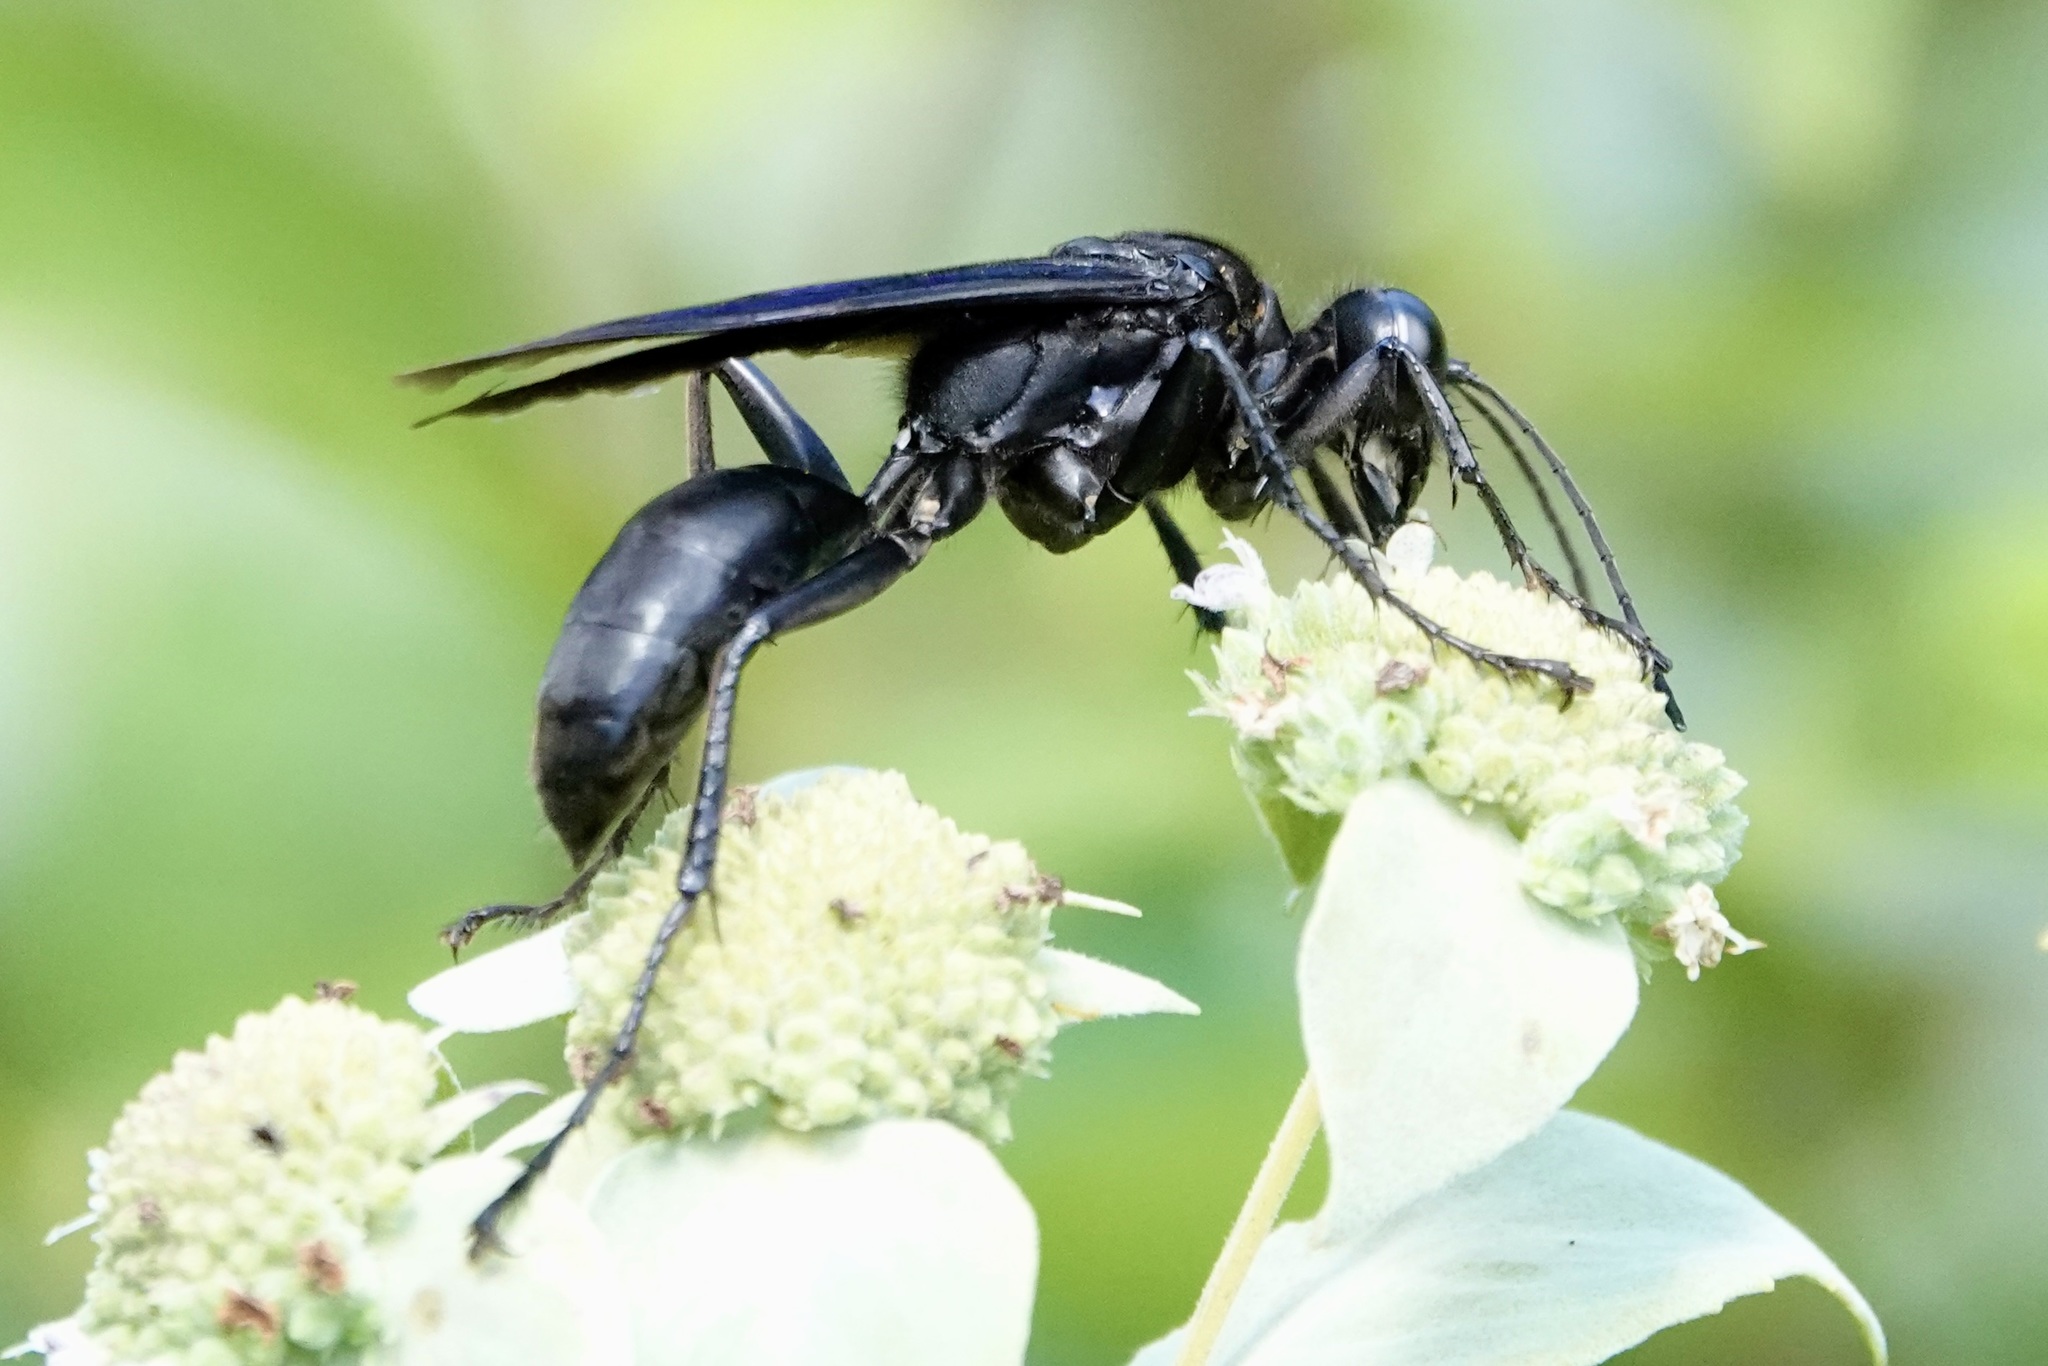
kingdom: Animalia
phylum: Arthropoda
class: Insecta
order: Hymenoptera
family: Sphecidae
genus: Sphex
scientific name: Sphex pensylvanicus
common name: Great black digger wasp
